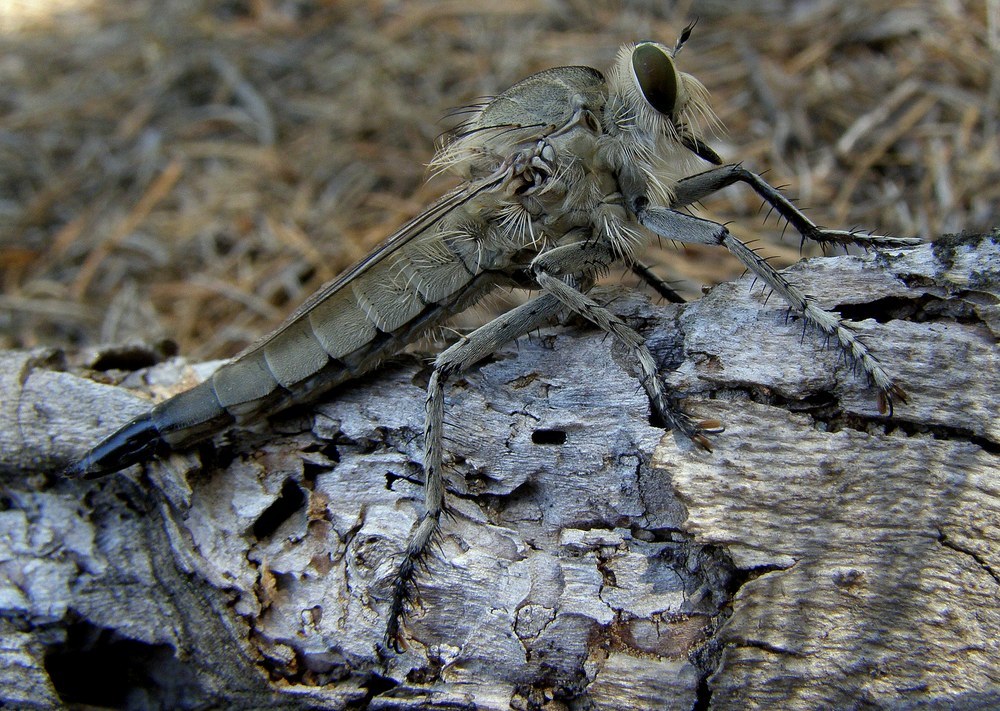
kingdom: Animalia
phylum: Arthropoda
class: Insecta
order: Diptera
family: Asilidae
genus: Satanas
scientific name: Satanas gigas
